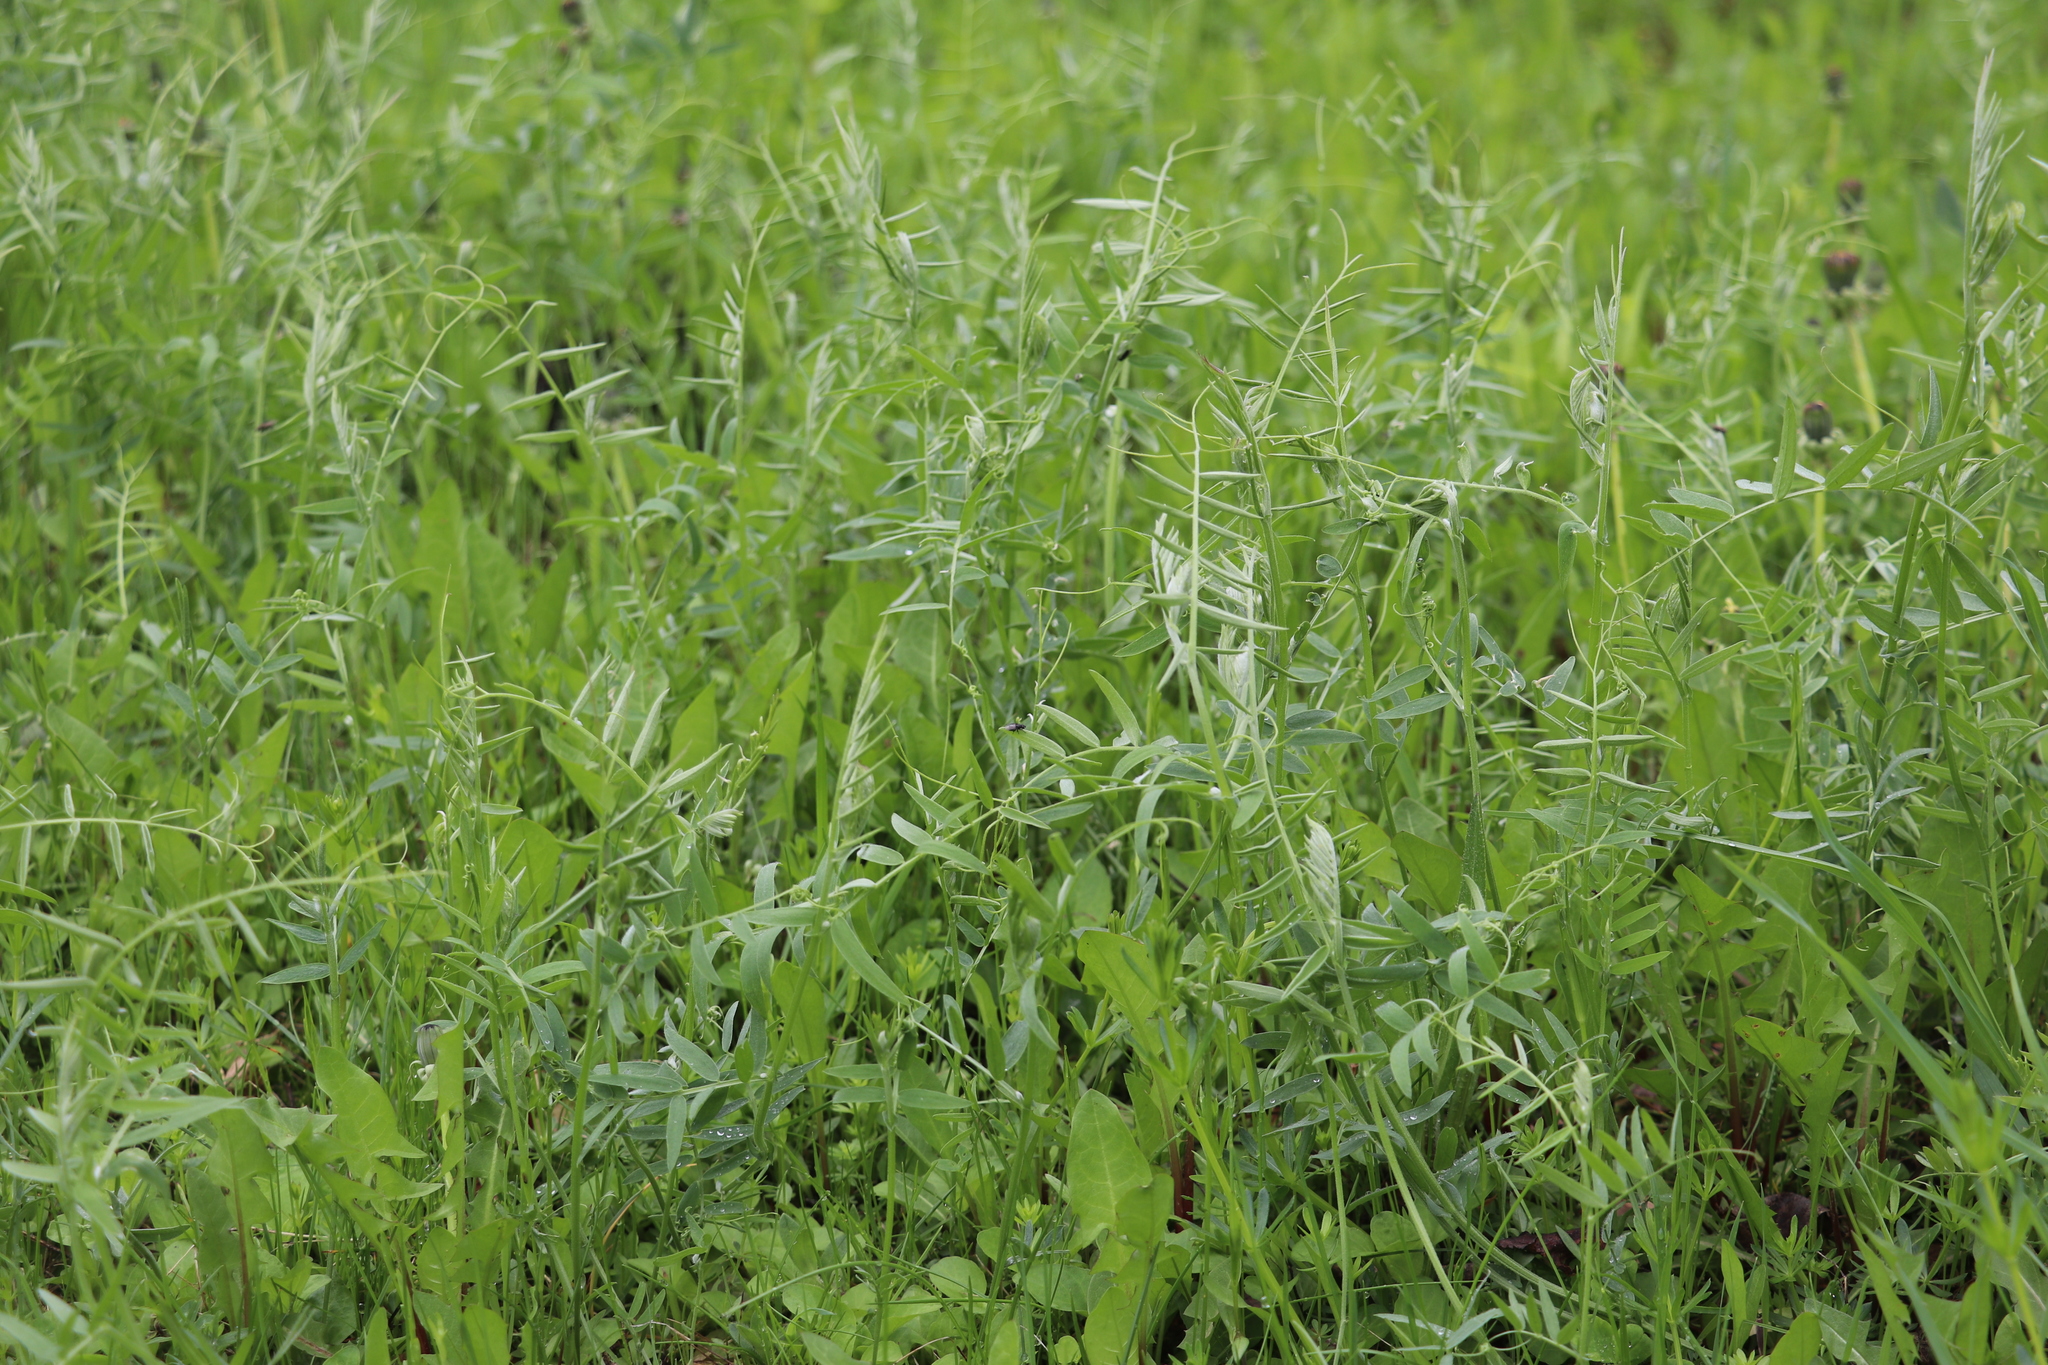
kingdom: Plantae
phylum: Tracheophyta
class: Magnoliopsida
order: Fabales
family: Fabaceae
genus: Vicia
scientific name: Vicia cracca
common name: Bird vetch
